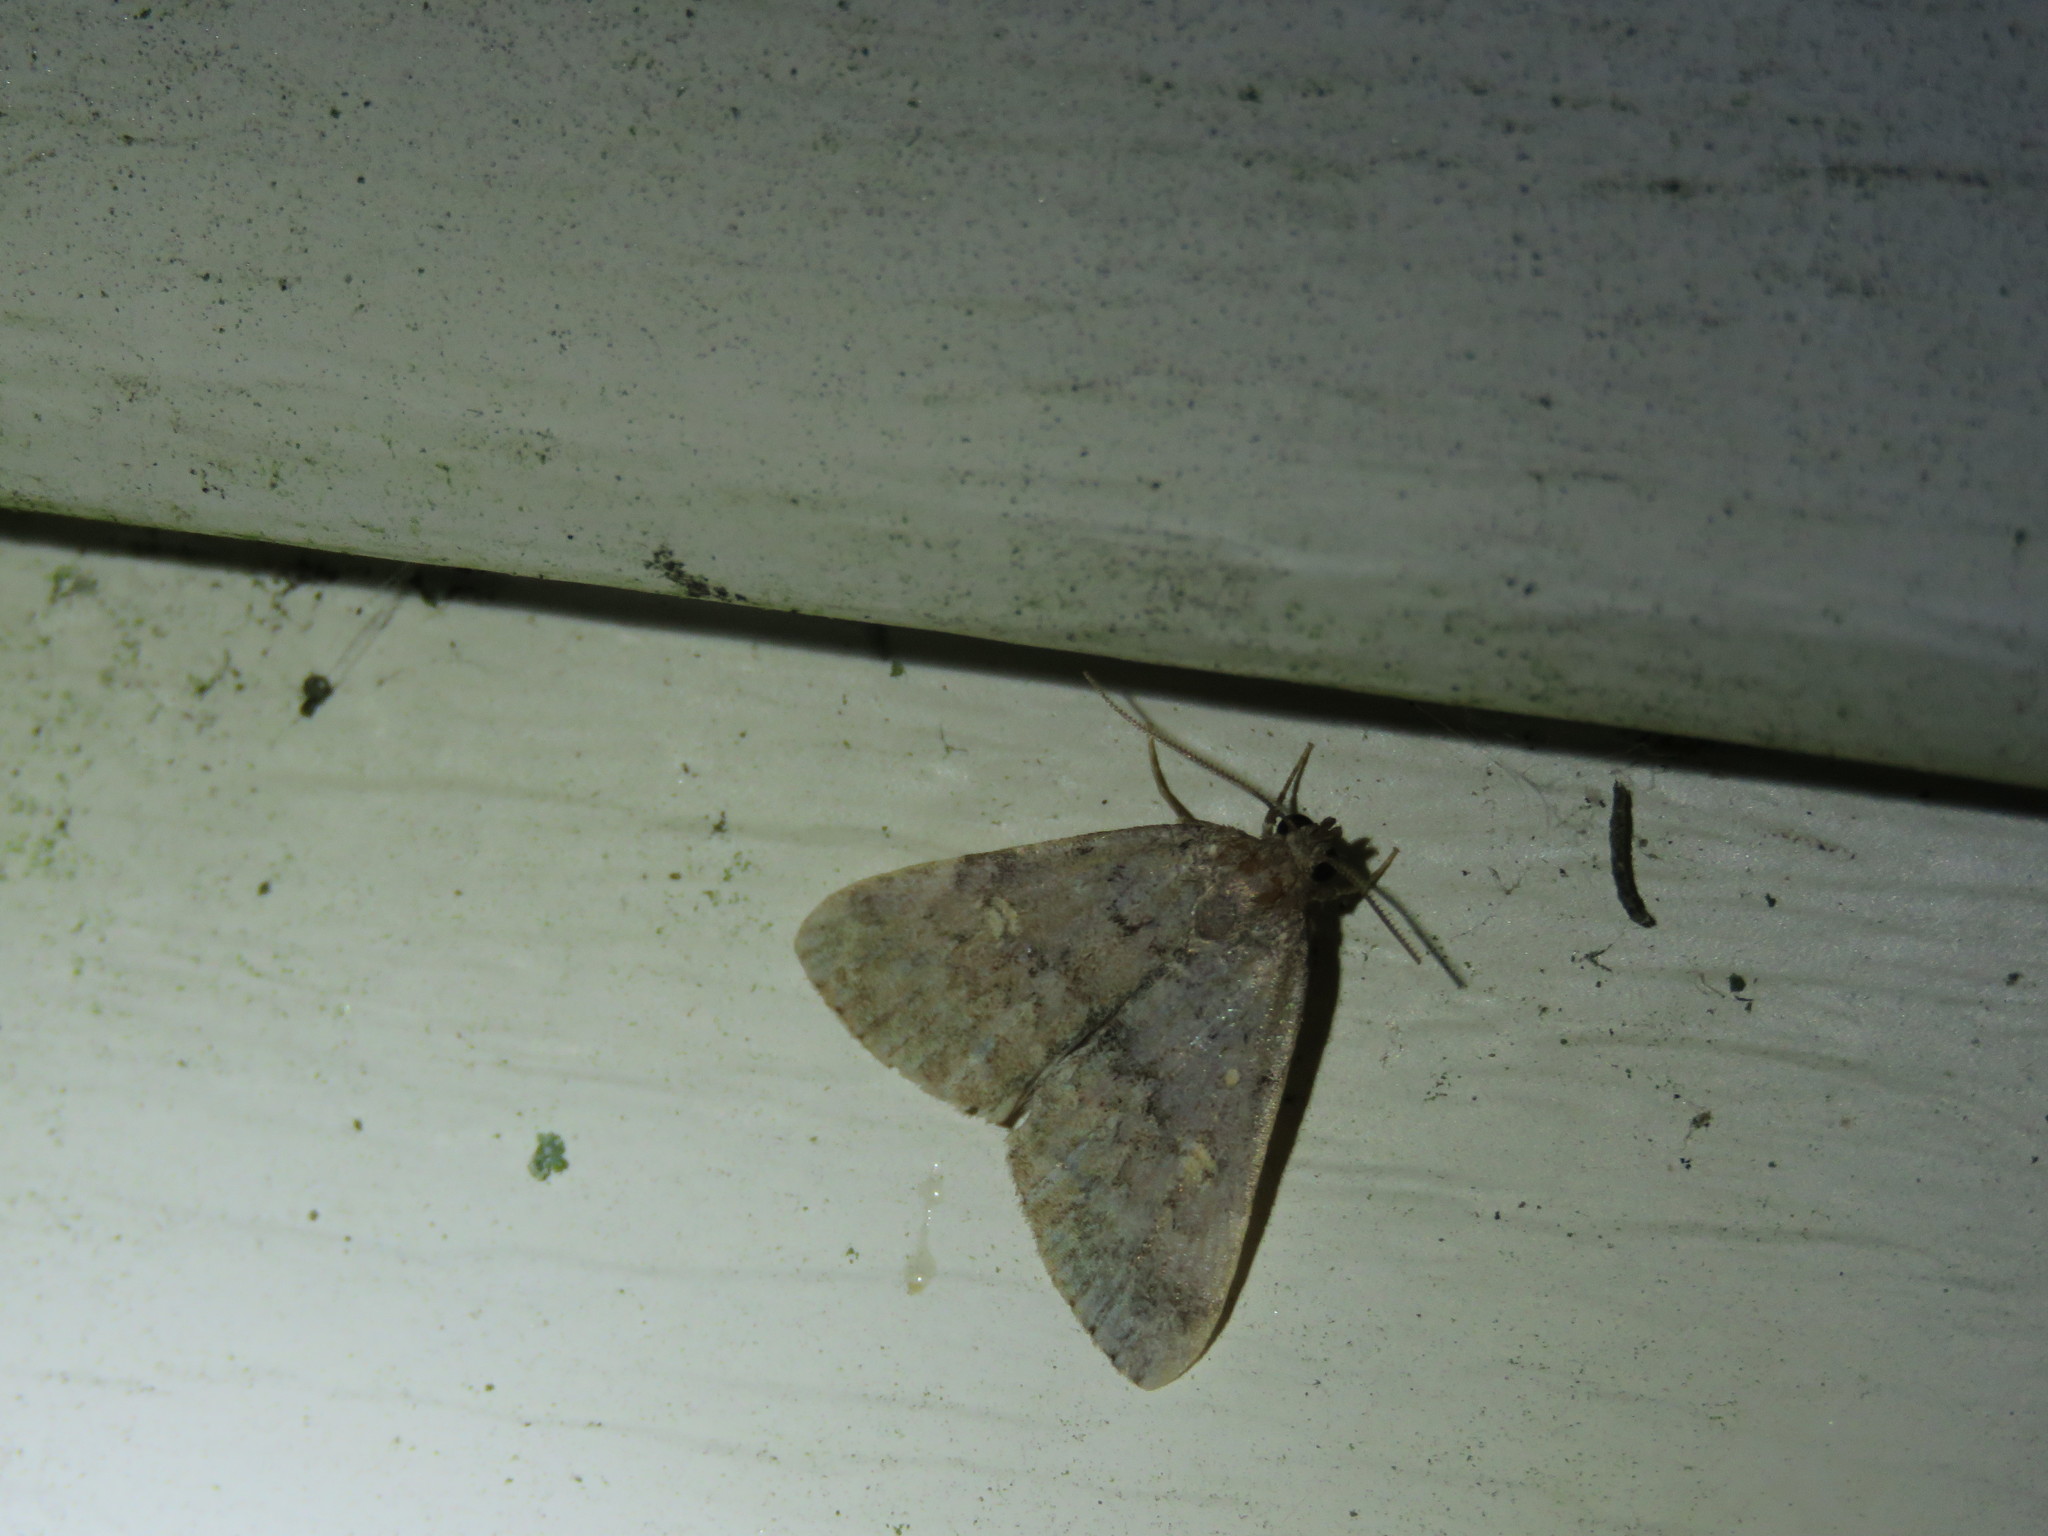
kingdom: Animalia
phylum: Arthropoda
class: Insecta
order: Lepidoptera
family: Erebidae
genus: Idia
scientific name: Idia aemula
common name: Common idia moth
